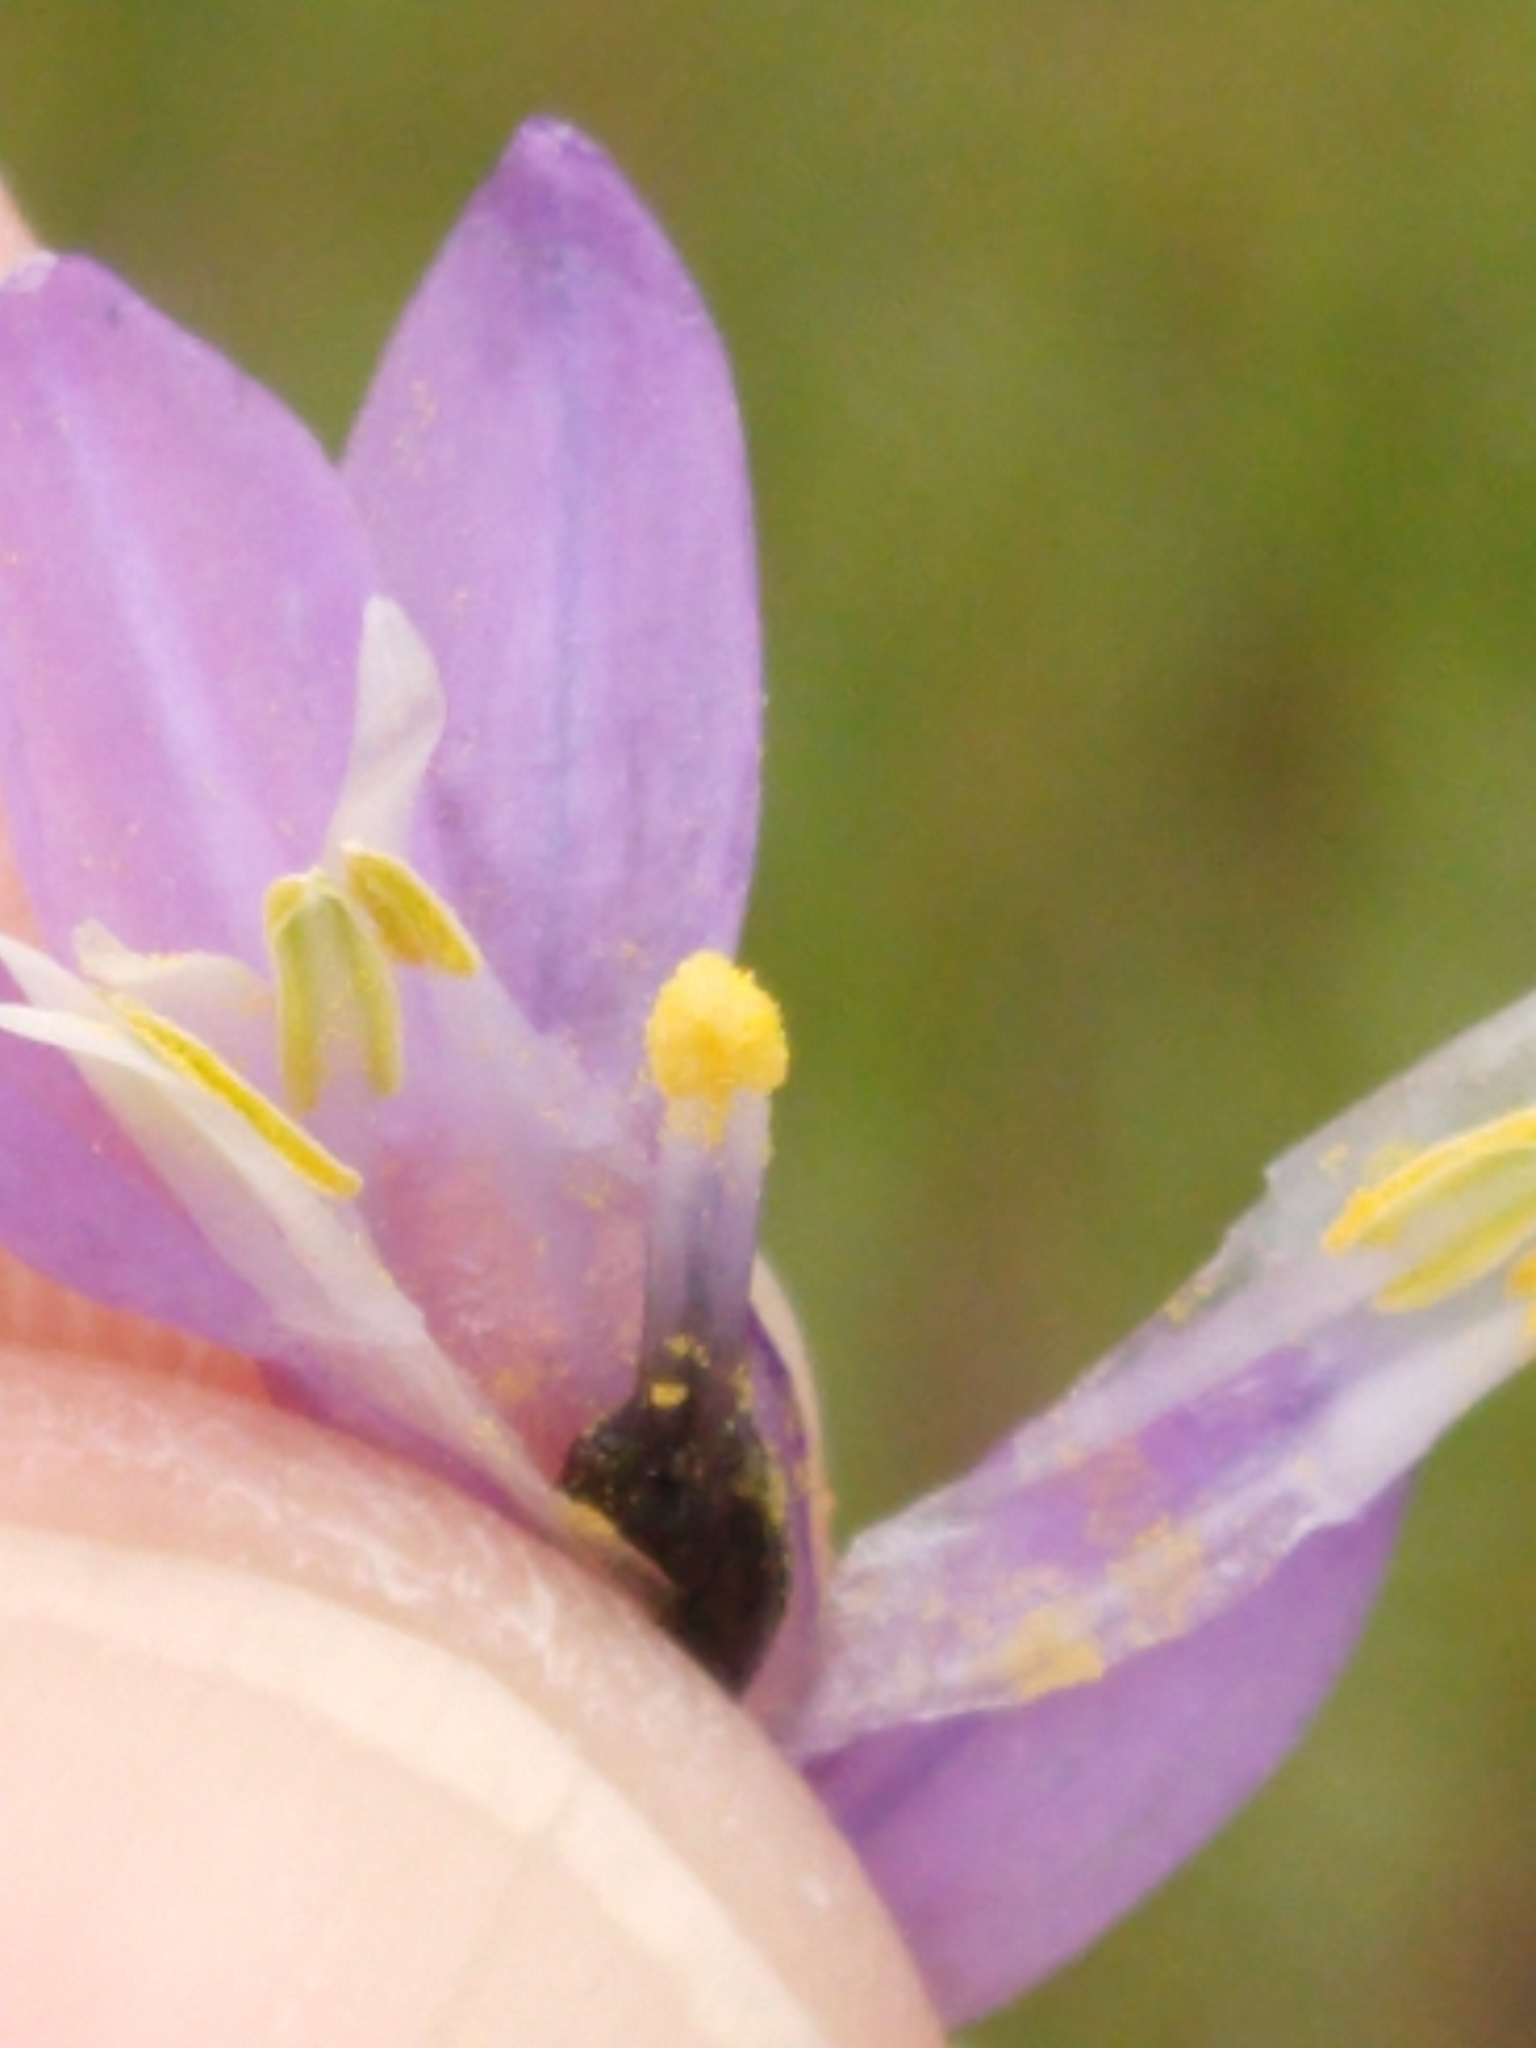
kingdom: Plantae
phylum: Tracheophyta
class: Liliopsida
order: Asparagales
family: Asparagaceae
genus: Dipterostemon
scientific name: Dipterostemon capitatus
